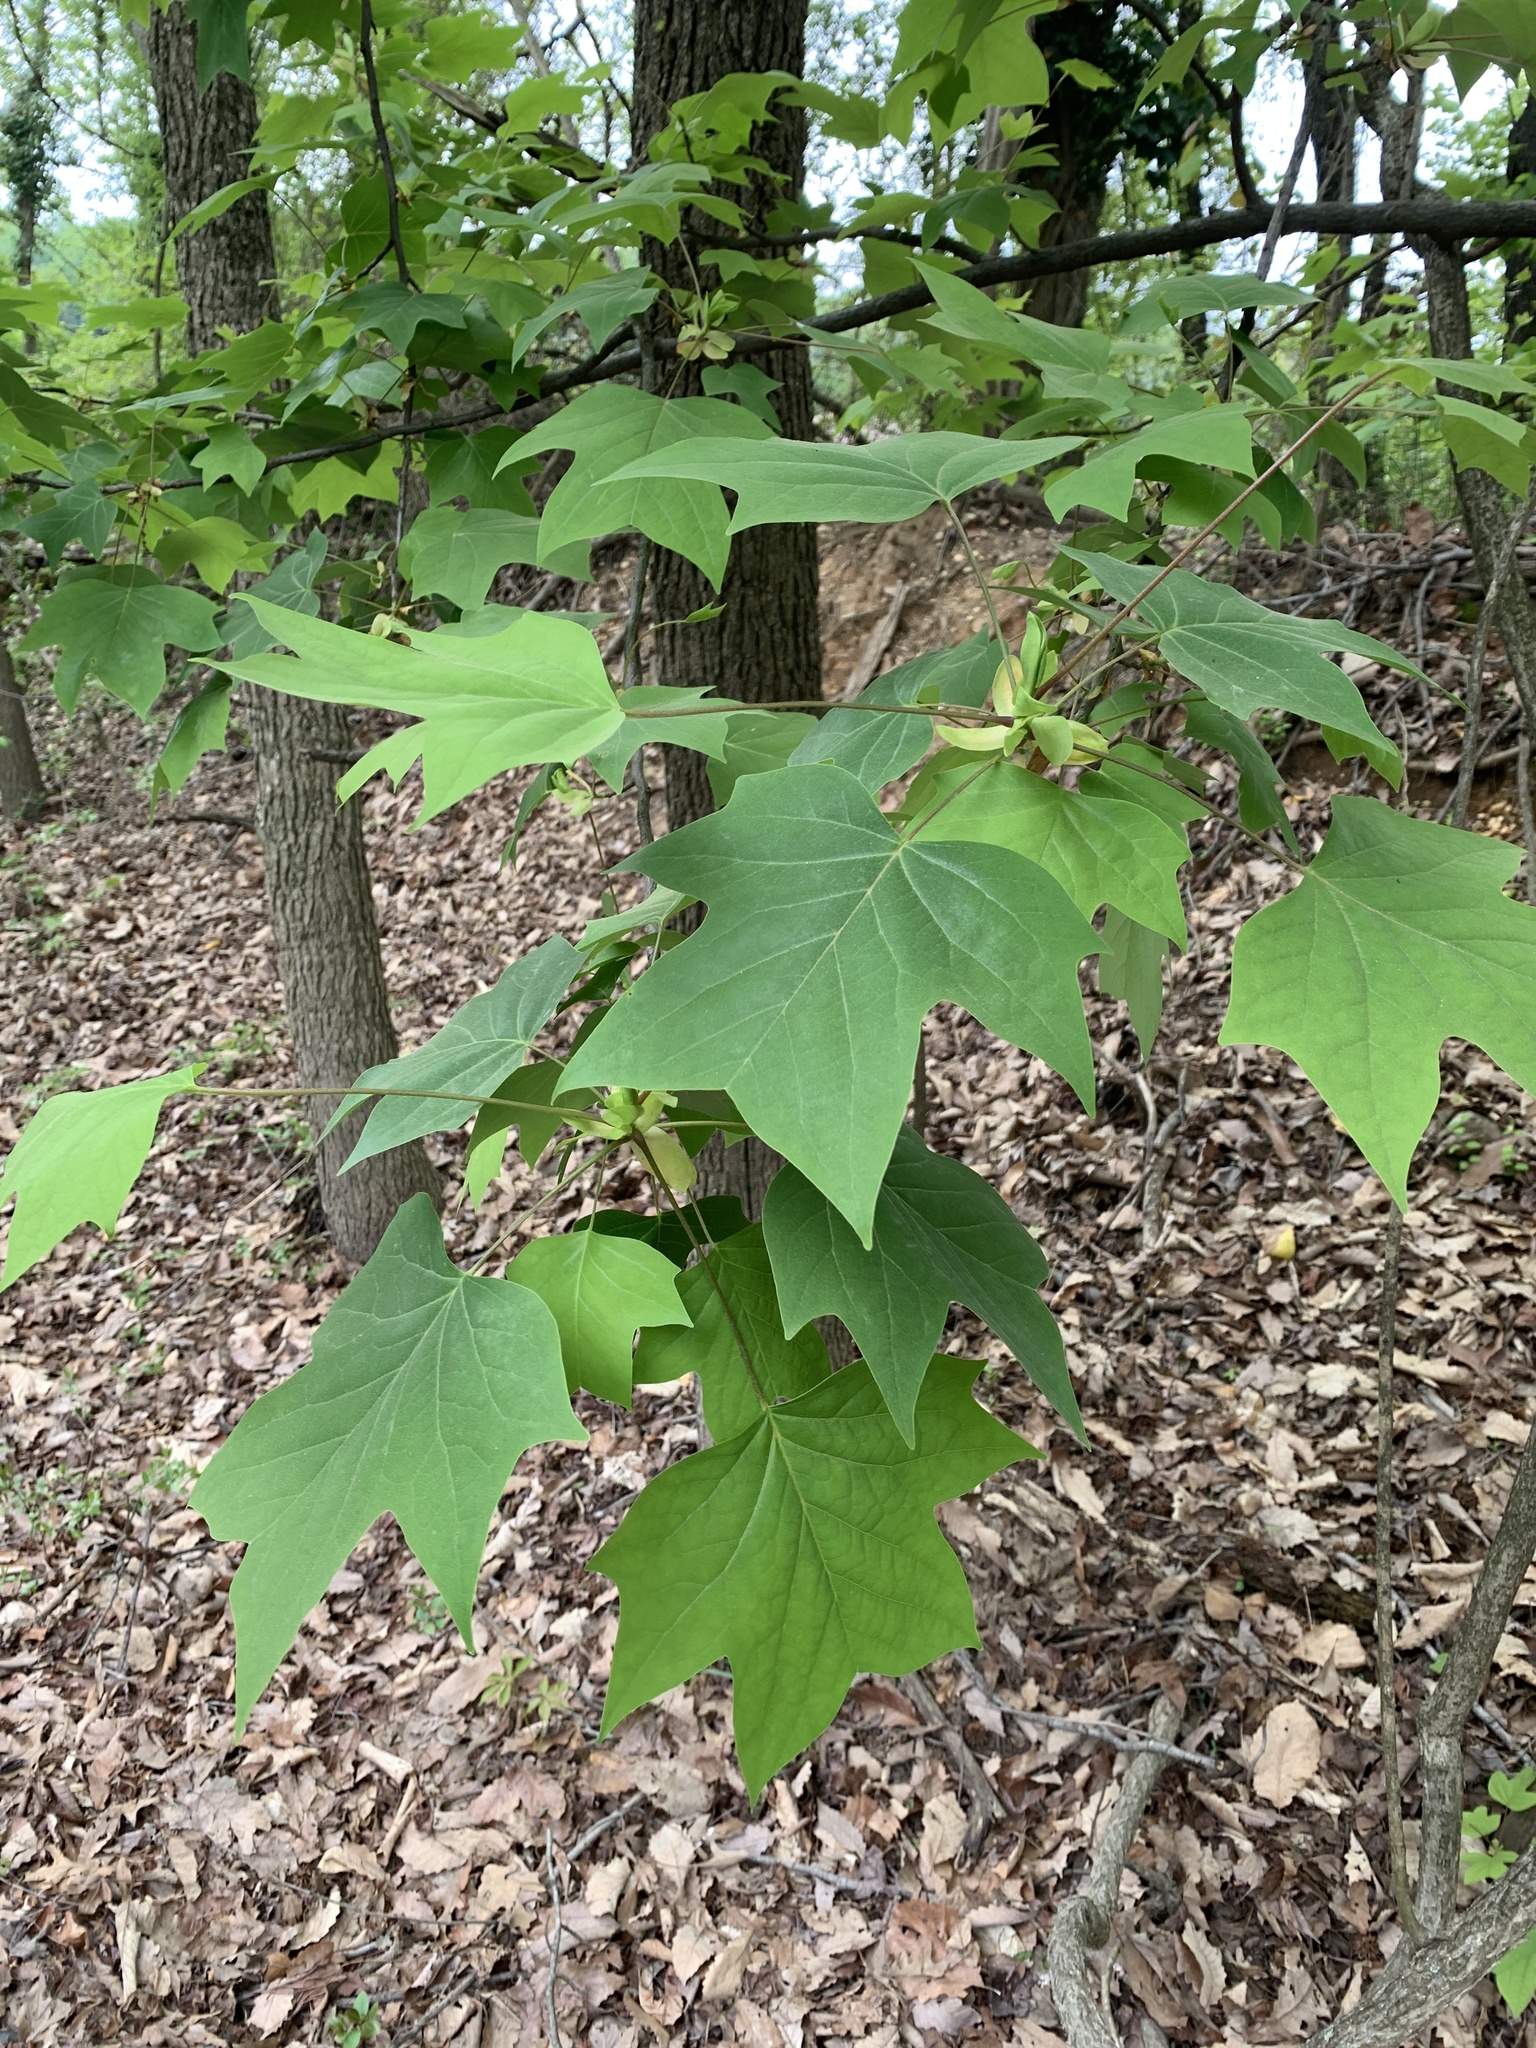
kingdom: Plantae
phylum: Tracheophyta
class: Magnoliopsida
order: Magnoliales
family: Magnoliaceae
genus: Liriodendron
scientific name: Liriodendron tulipifera
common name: Tulip tree
